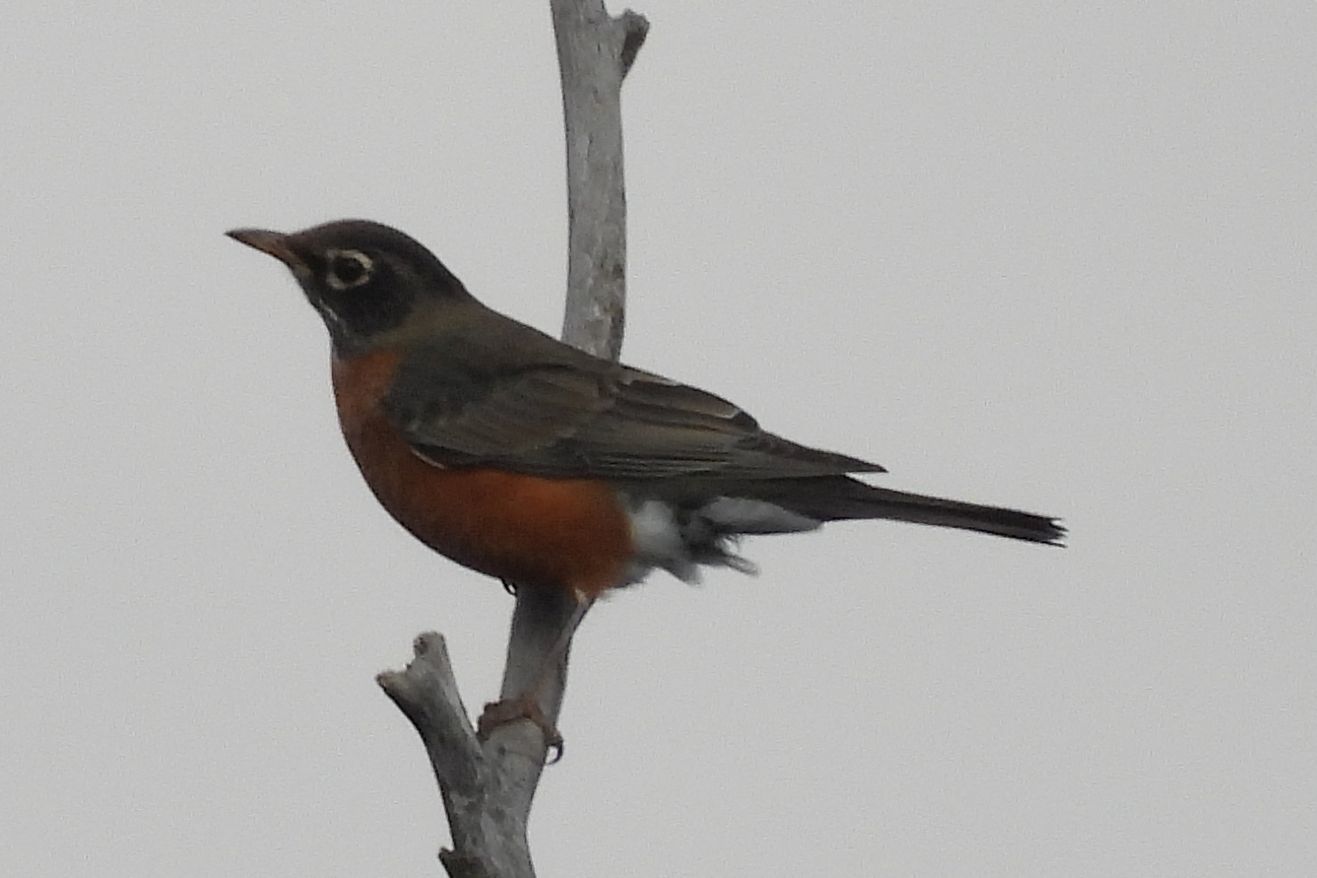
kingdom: Animalia
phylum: Chordata
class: Aves
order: Passeriformes
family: Turdidae
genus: Turdus
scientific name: Turdus migratorius
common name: American robin
